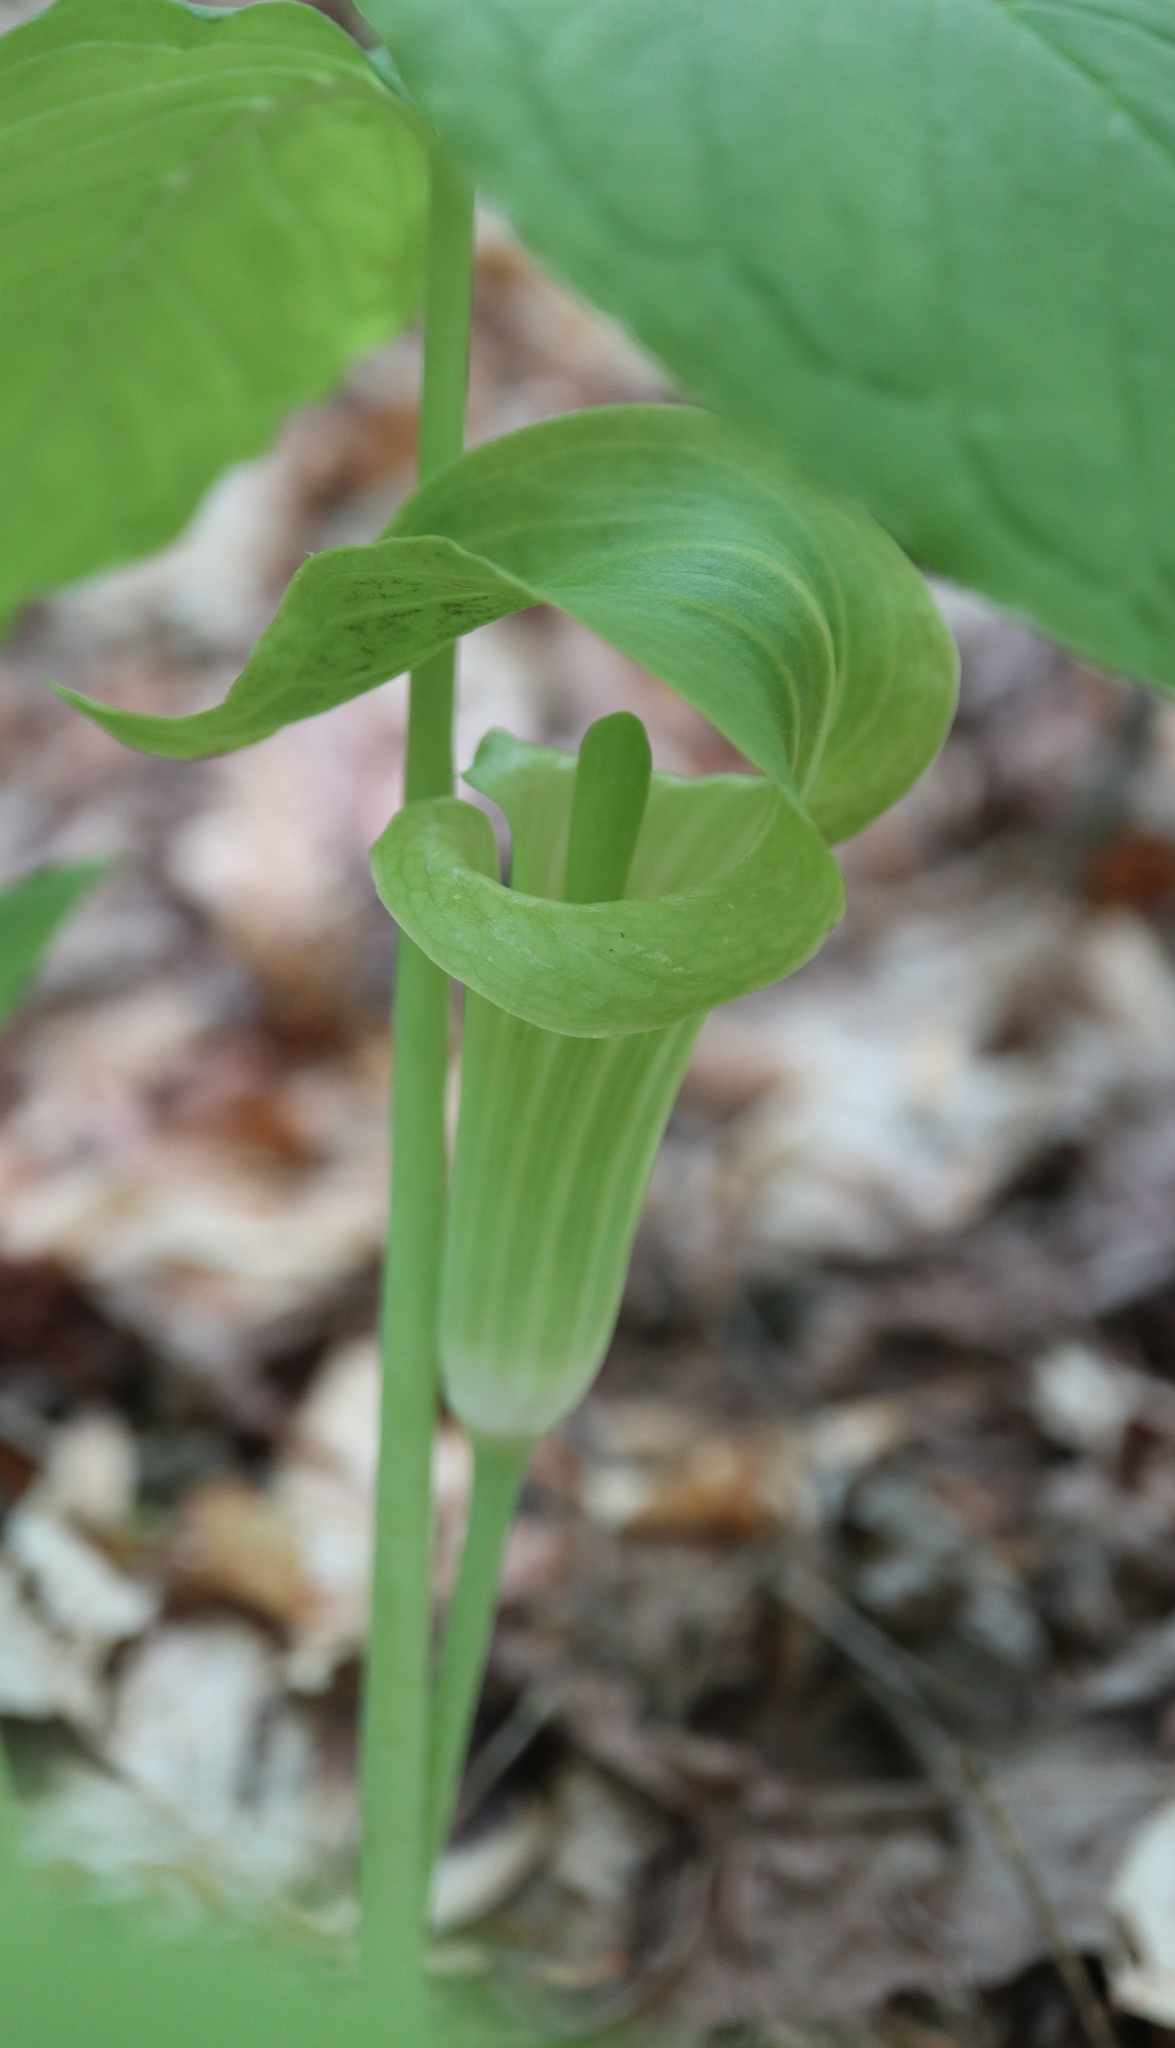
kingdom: Plantae
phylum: Tracheophyta
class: Liliopsida
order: Alismatales
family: Araceae
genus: Arisaema
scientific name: Arisaema triphyllum
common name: Jack-in-the-pulpit
